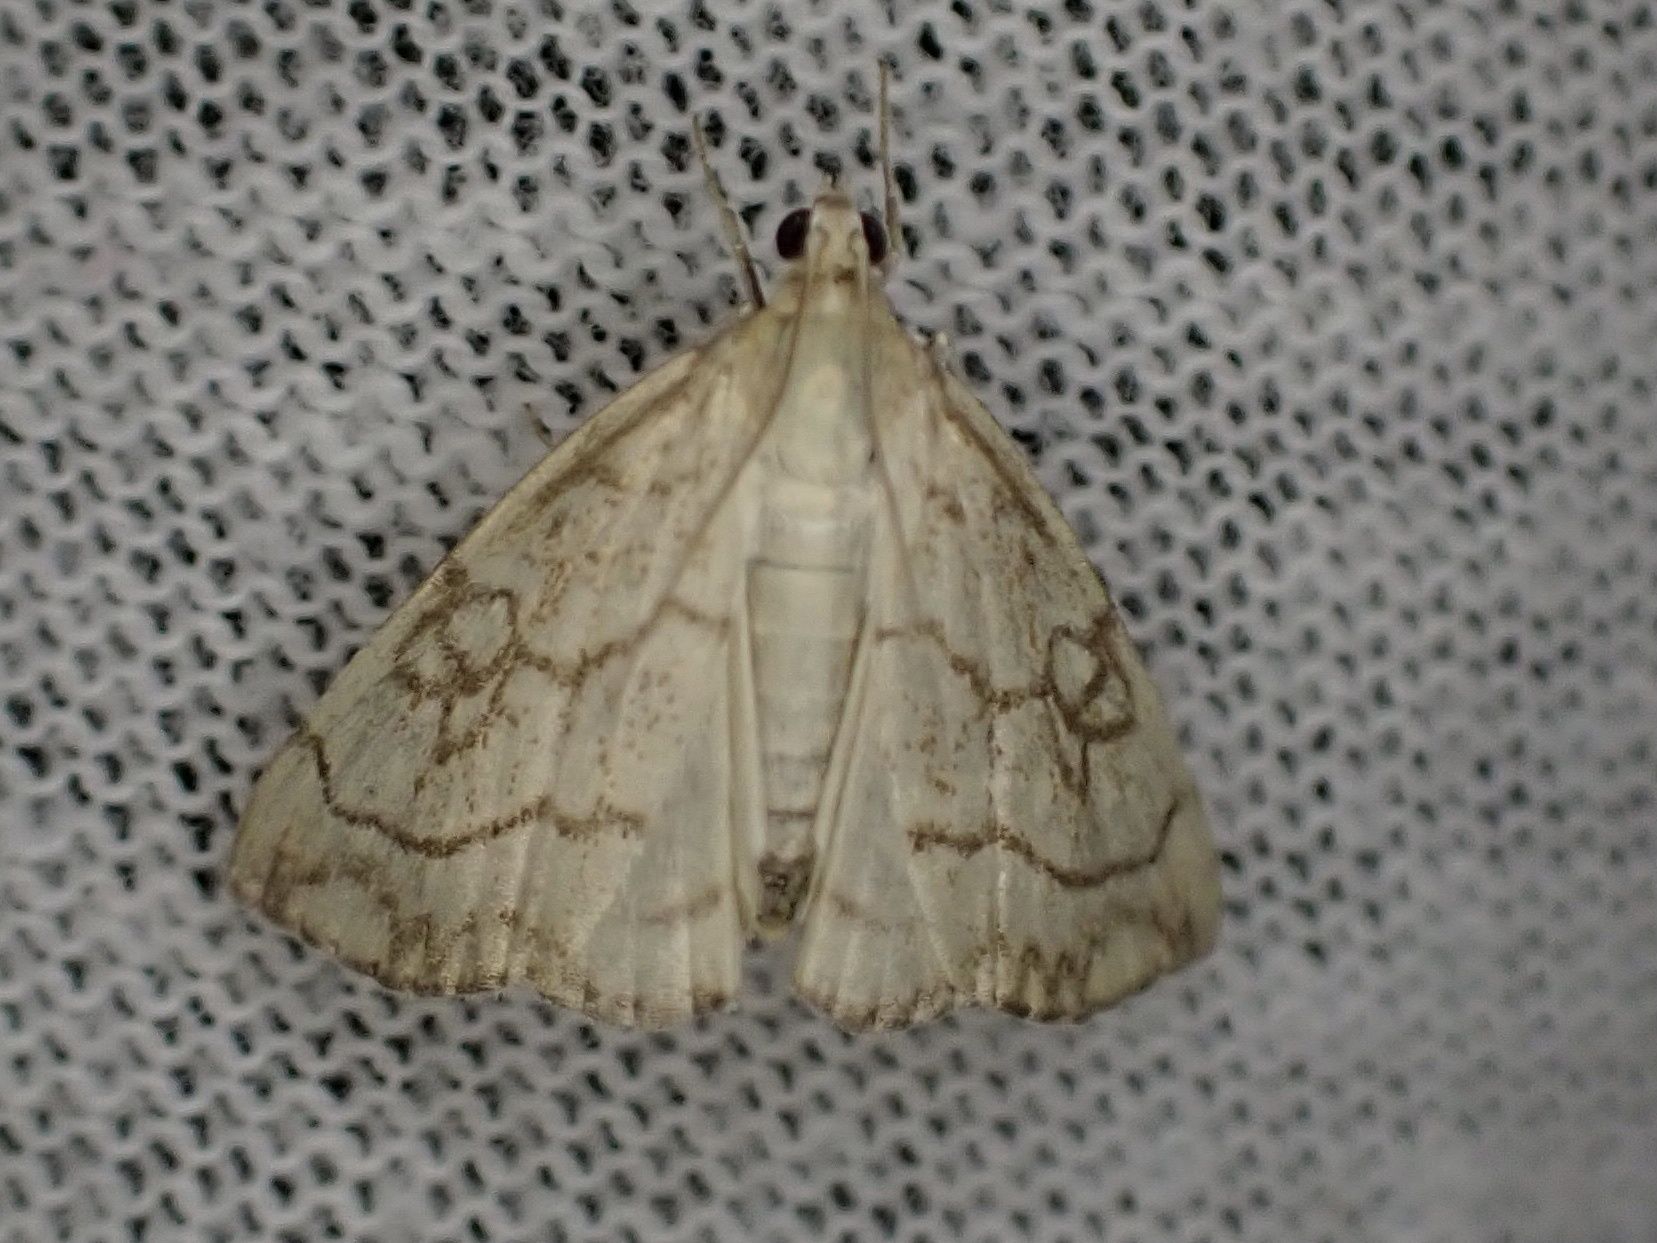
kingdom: Animalia
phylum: Arthropoda
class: Insecta
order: Lepidoptera
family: Crambidae
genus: Evergestis
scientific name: Evergestis pallidata
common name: Chequered pearl
